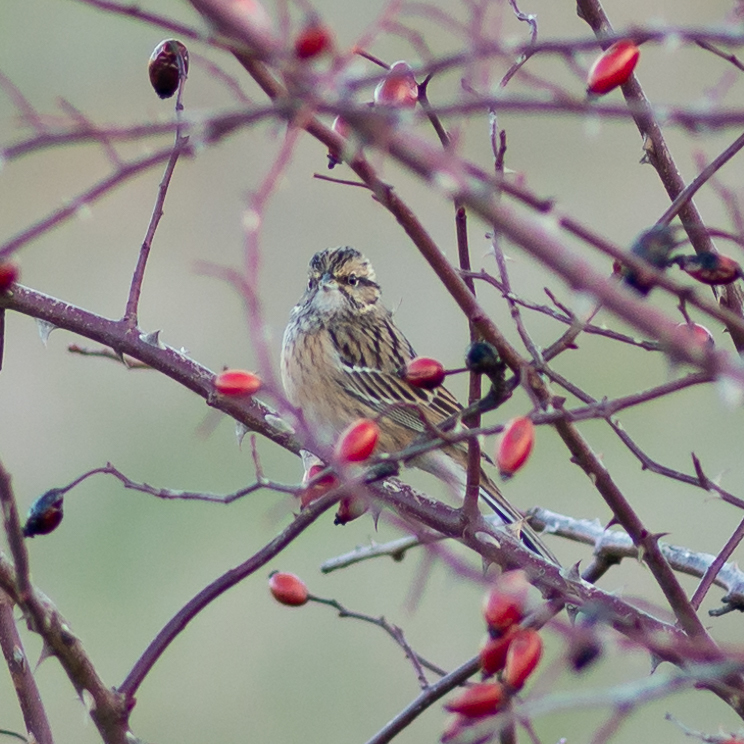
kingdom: Animalia
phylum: Chordata
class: Aves
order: Passeriformes
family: Emberizidae
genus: Emberiza
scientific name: Emberiza cia
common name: Rock bunting
